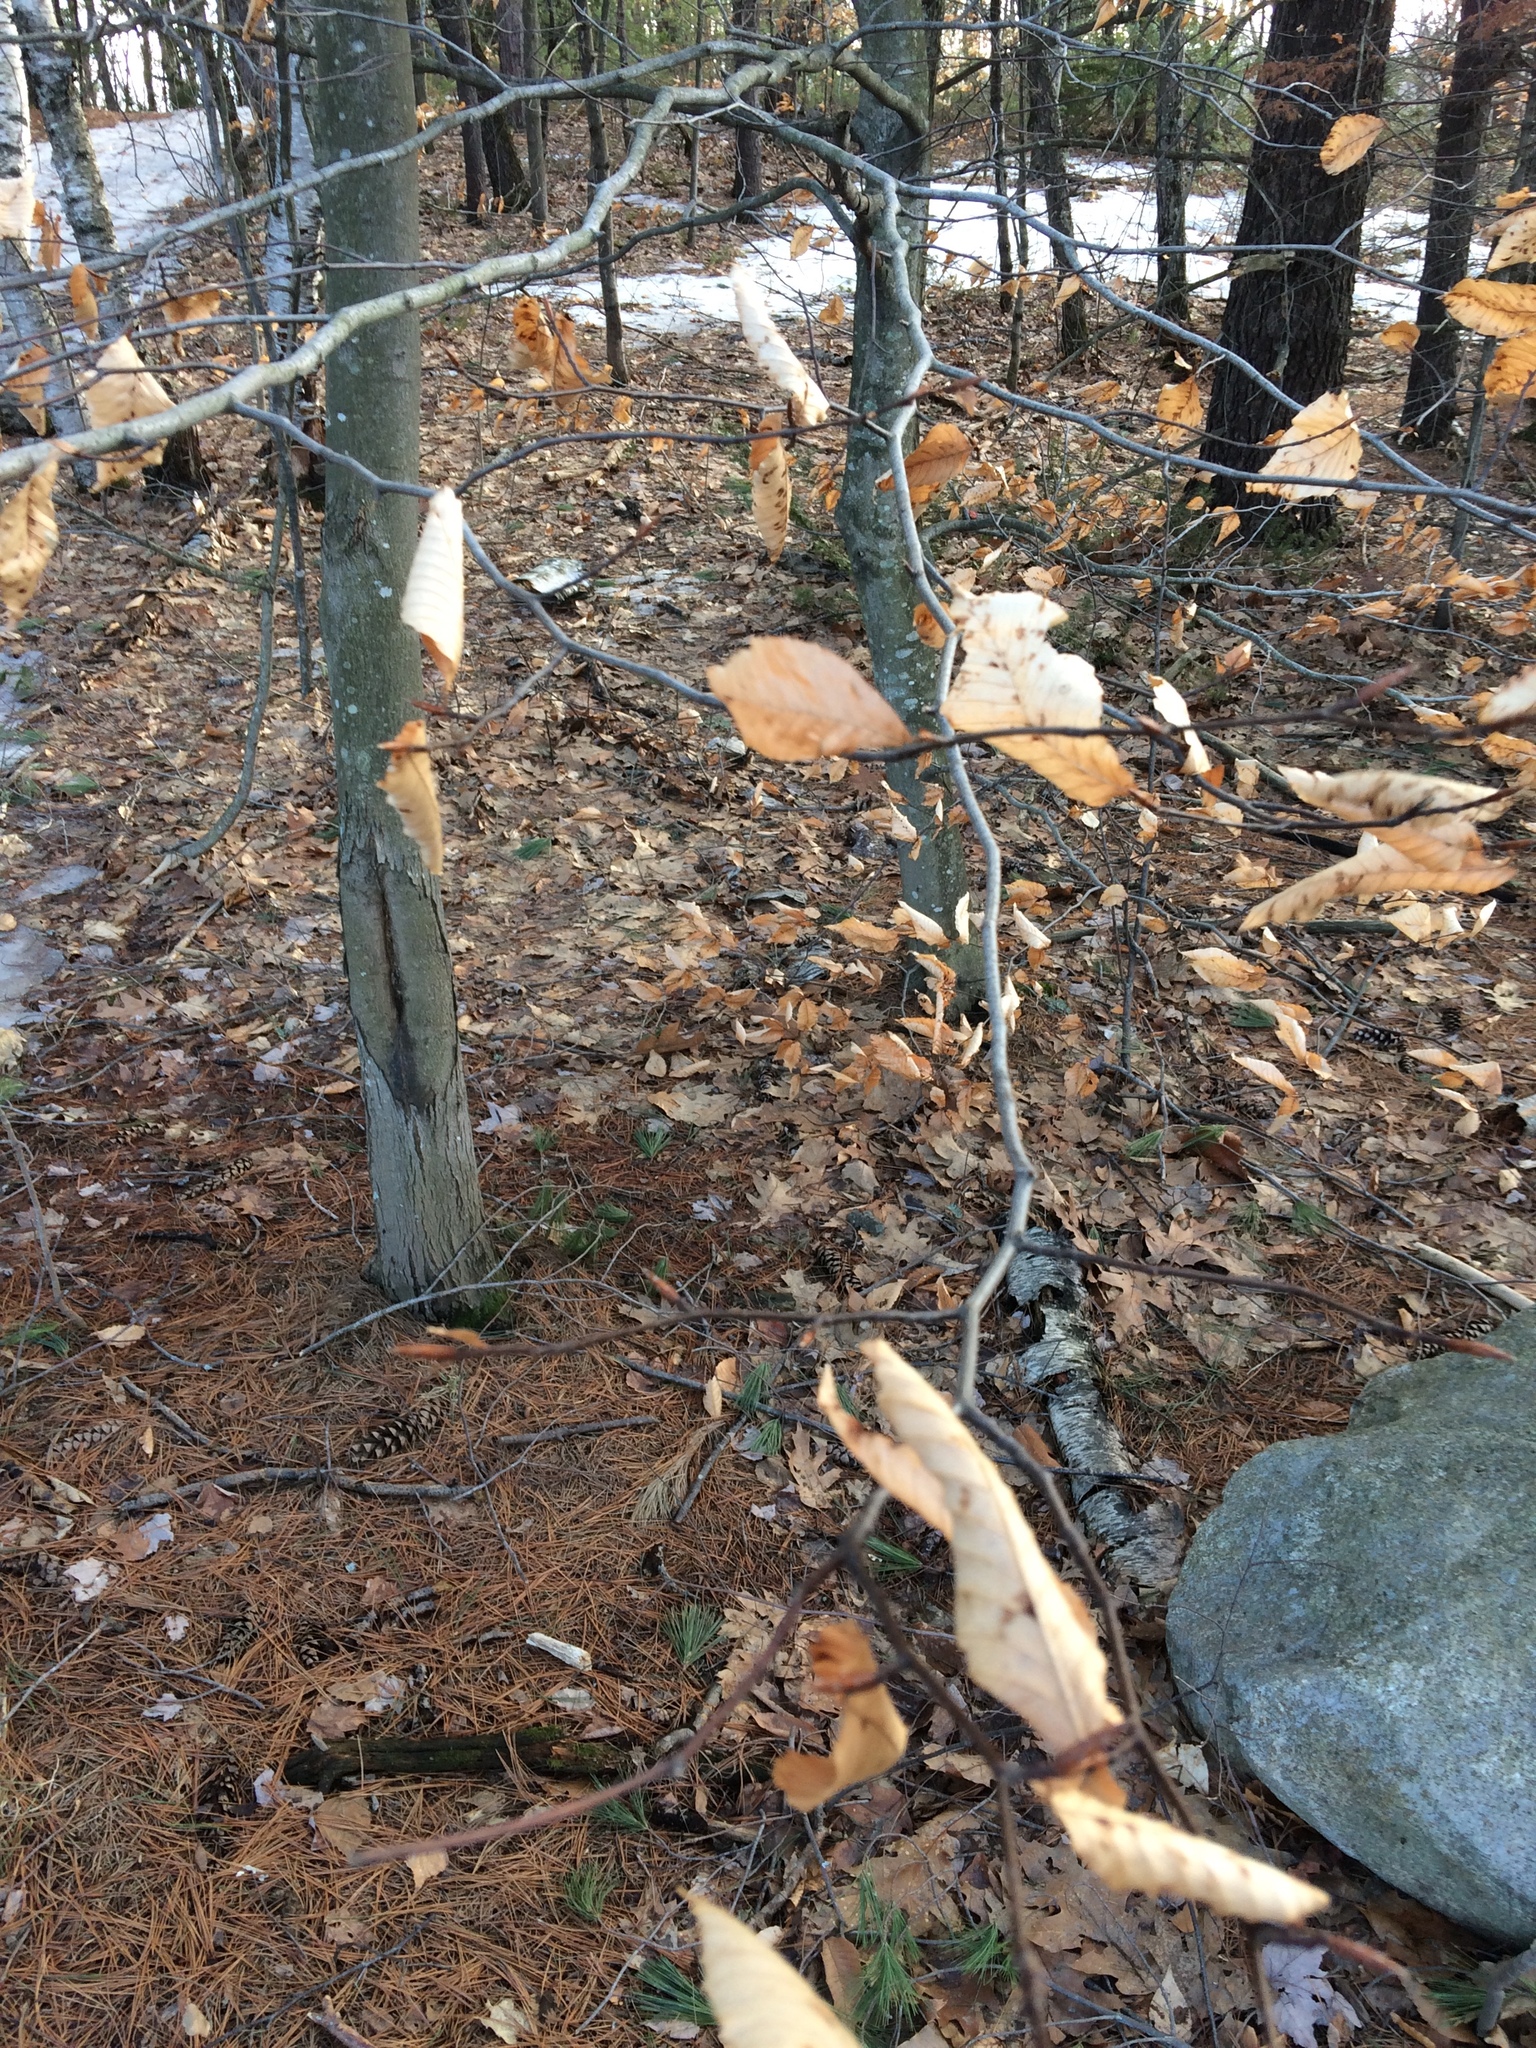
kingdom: Plantae
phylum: Tracheophyta
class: Magnoliopsida
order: Fagales
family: Fagaceae
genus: Fagus
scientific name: Fagus grandifolia
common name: American beech
